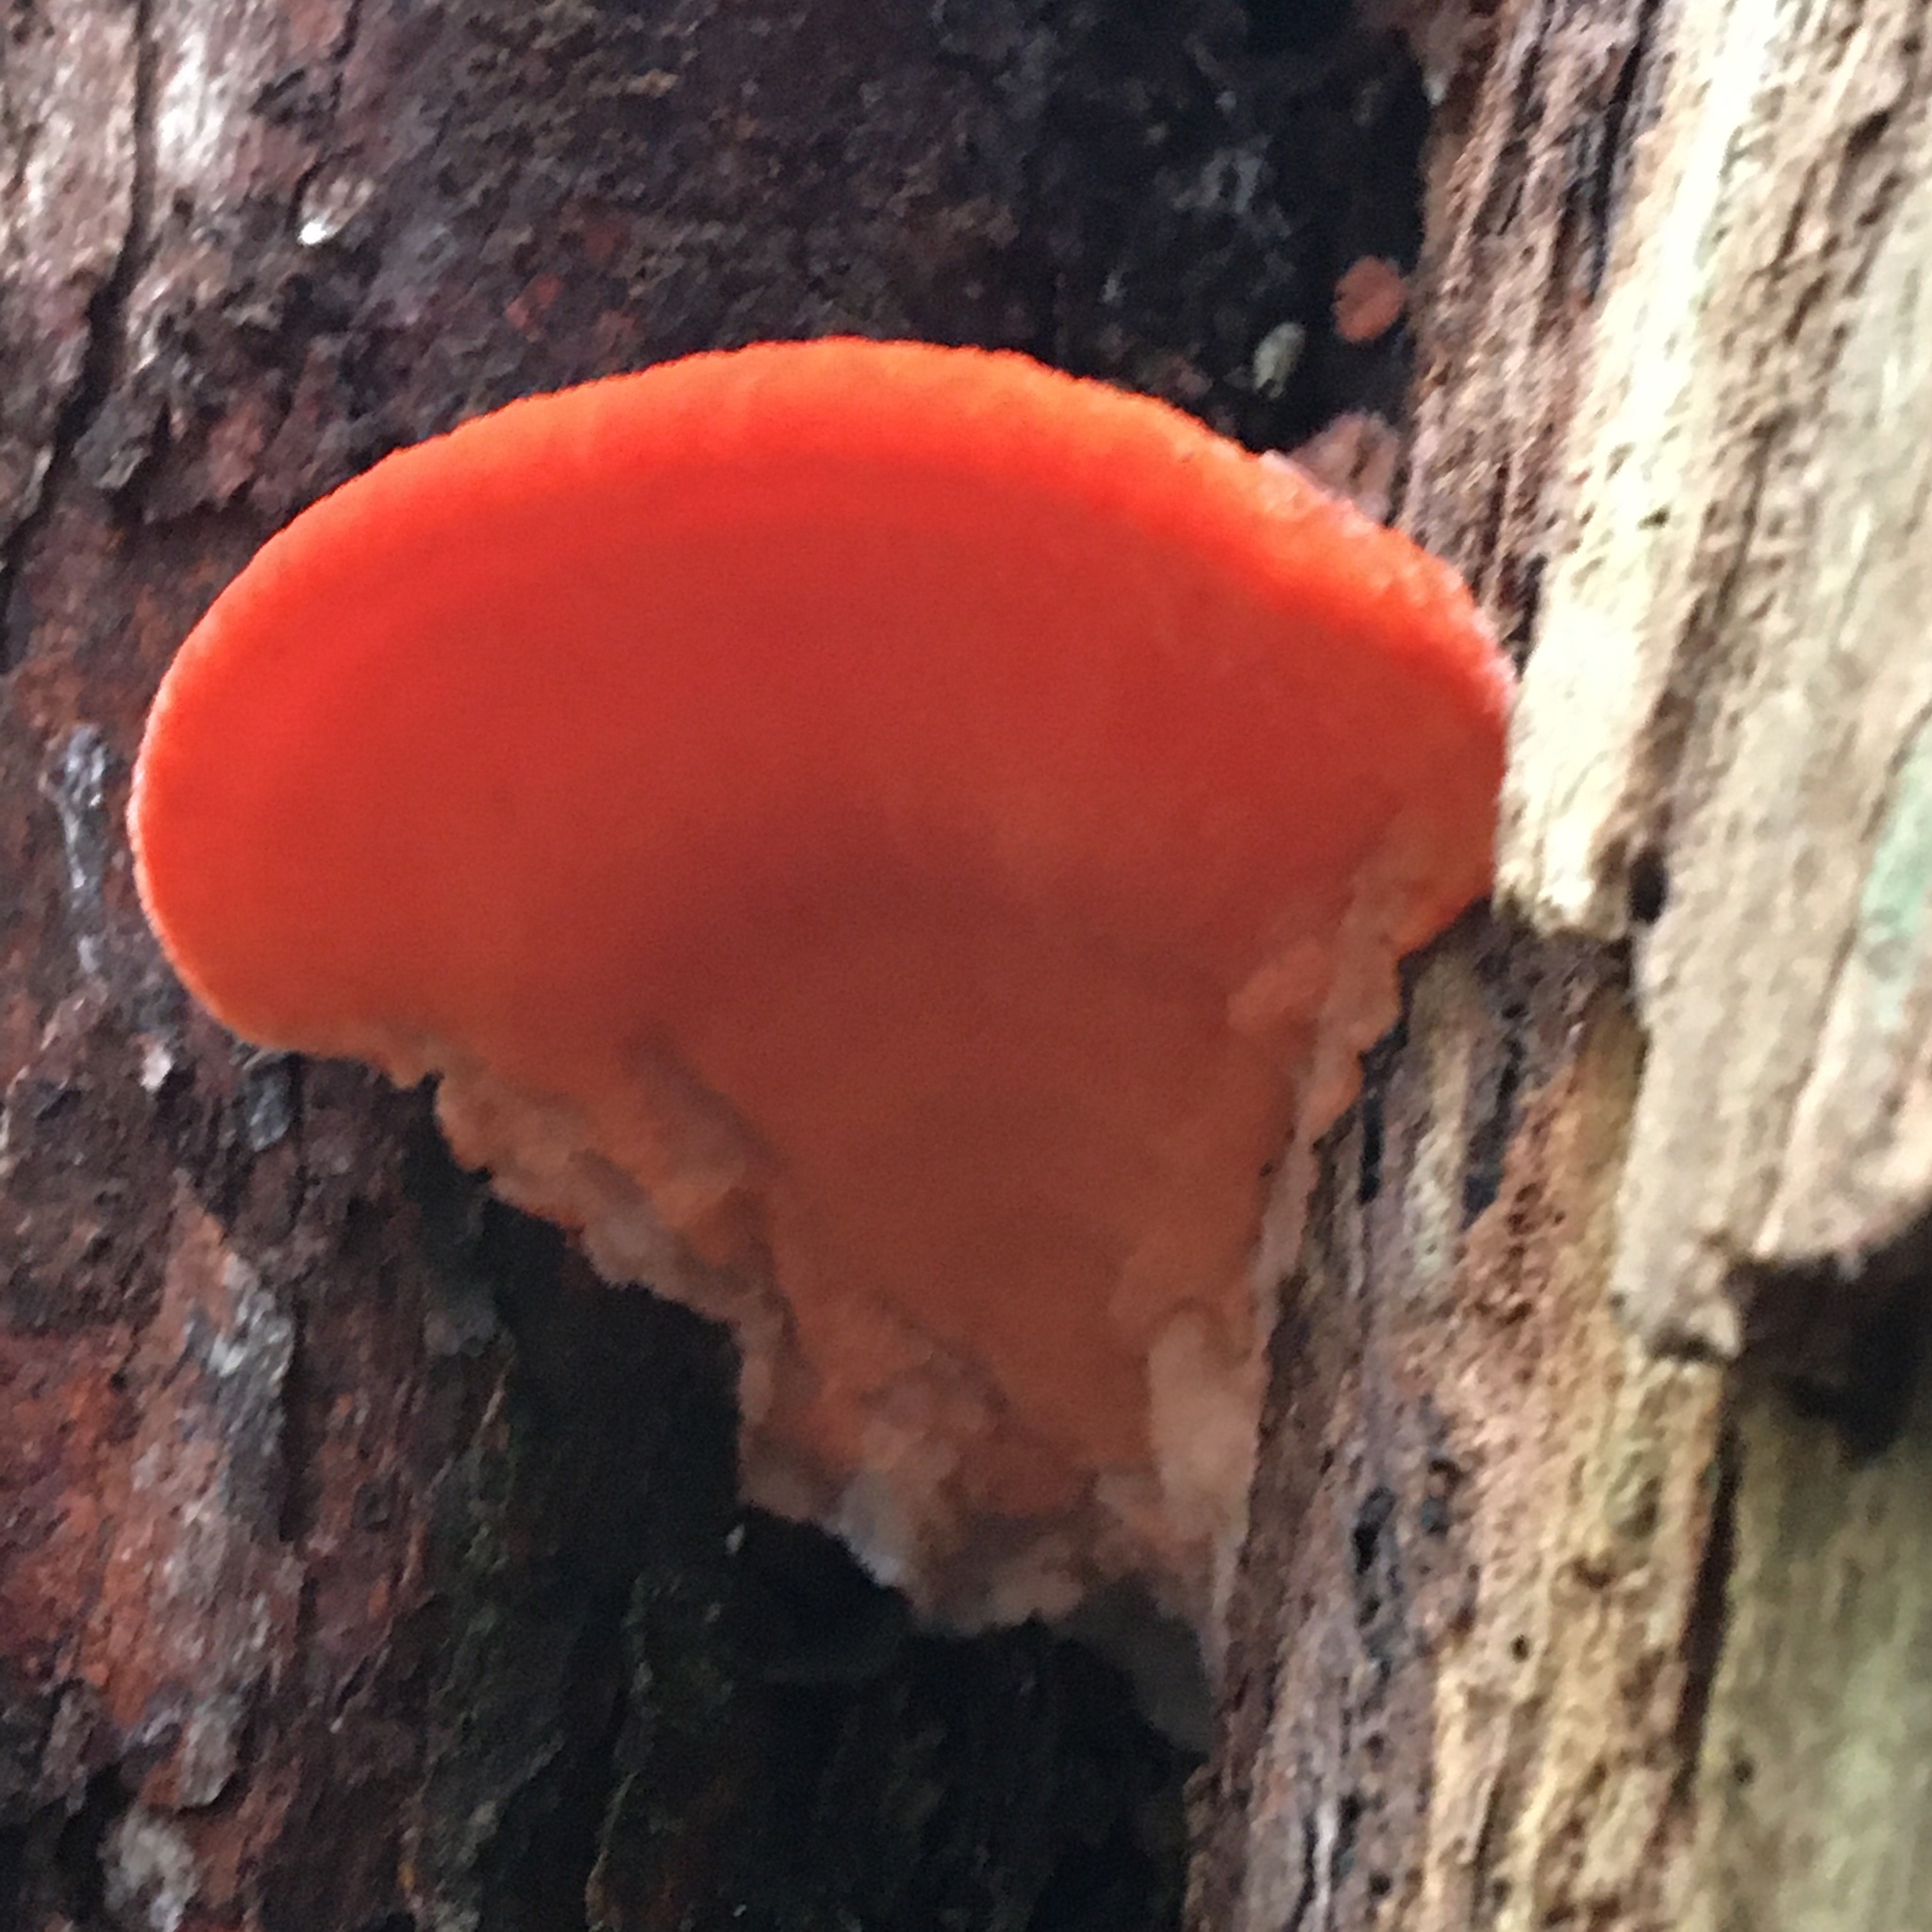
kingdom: Fungi
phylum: Basidiomycota
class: Agaricomycetes
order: Polyporales
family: Incrustoporiaceae
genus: Tyromyces
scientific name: Tyromyces pulcherrimus
